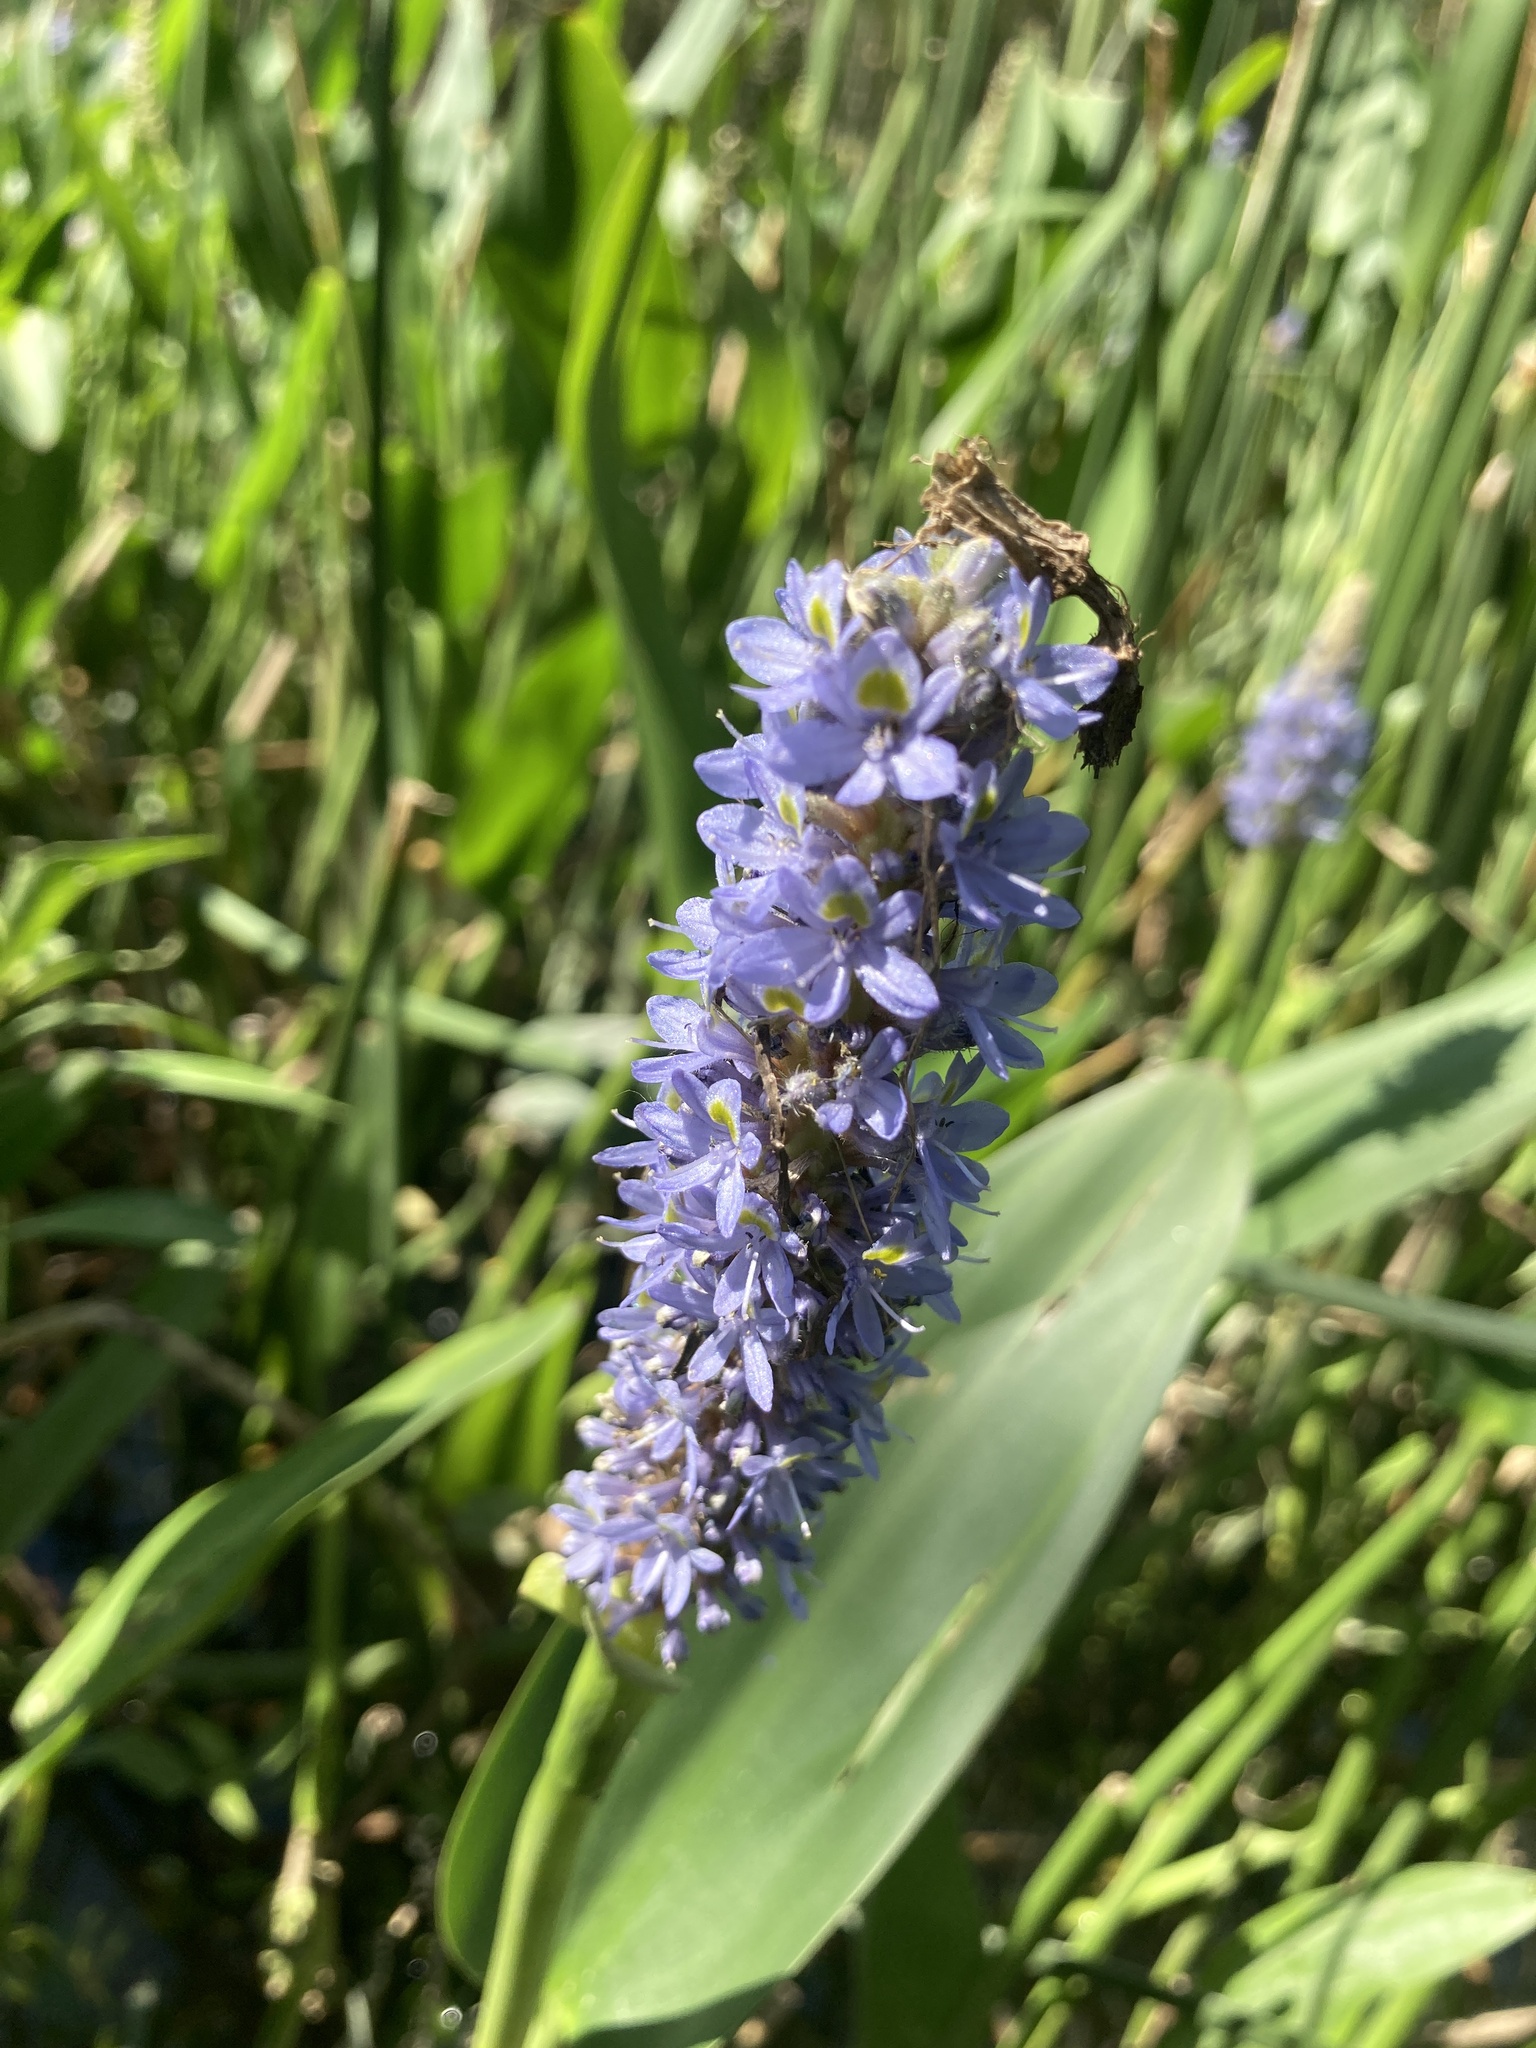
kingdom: Plantae
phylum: Tracheophyta
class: Liliopsida
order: Commelinales
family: Pontederiaceae
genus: Pontederia
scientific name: Pontederia cordata
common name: Pickerelweed
